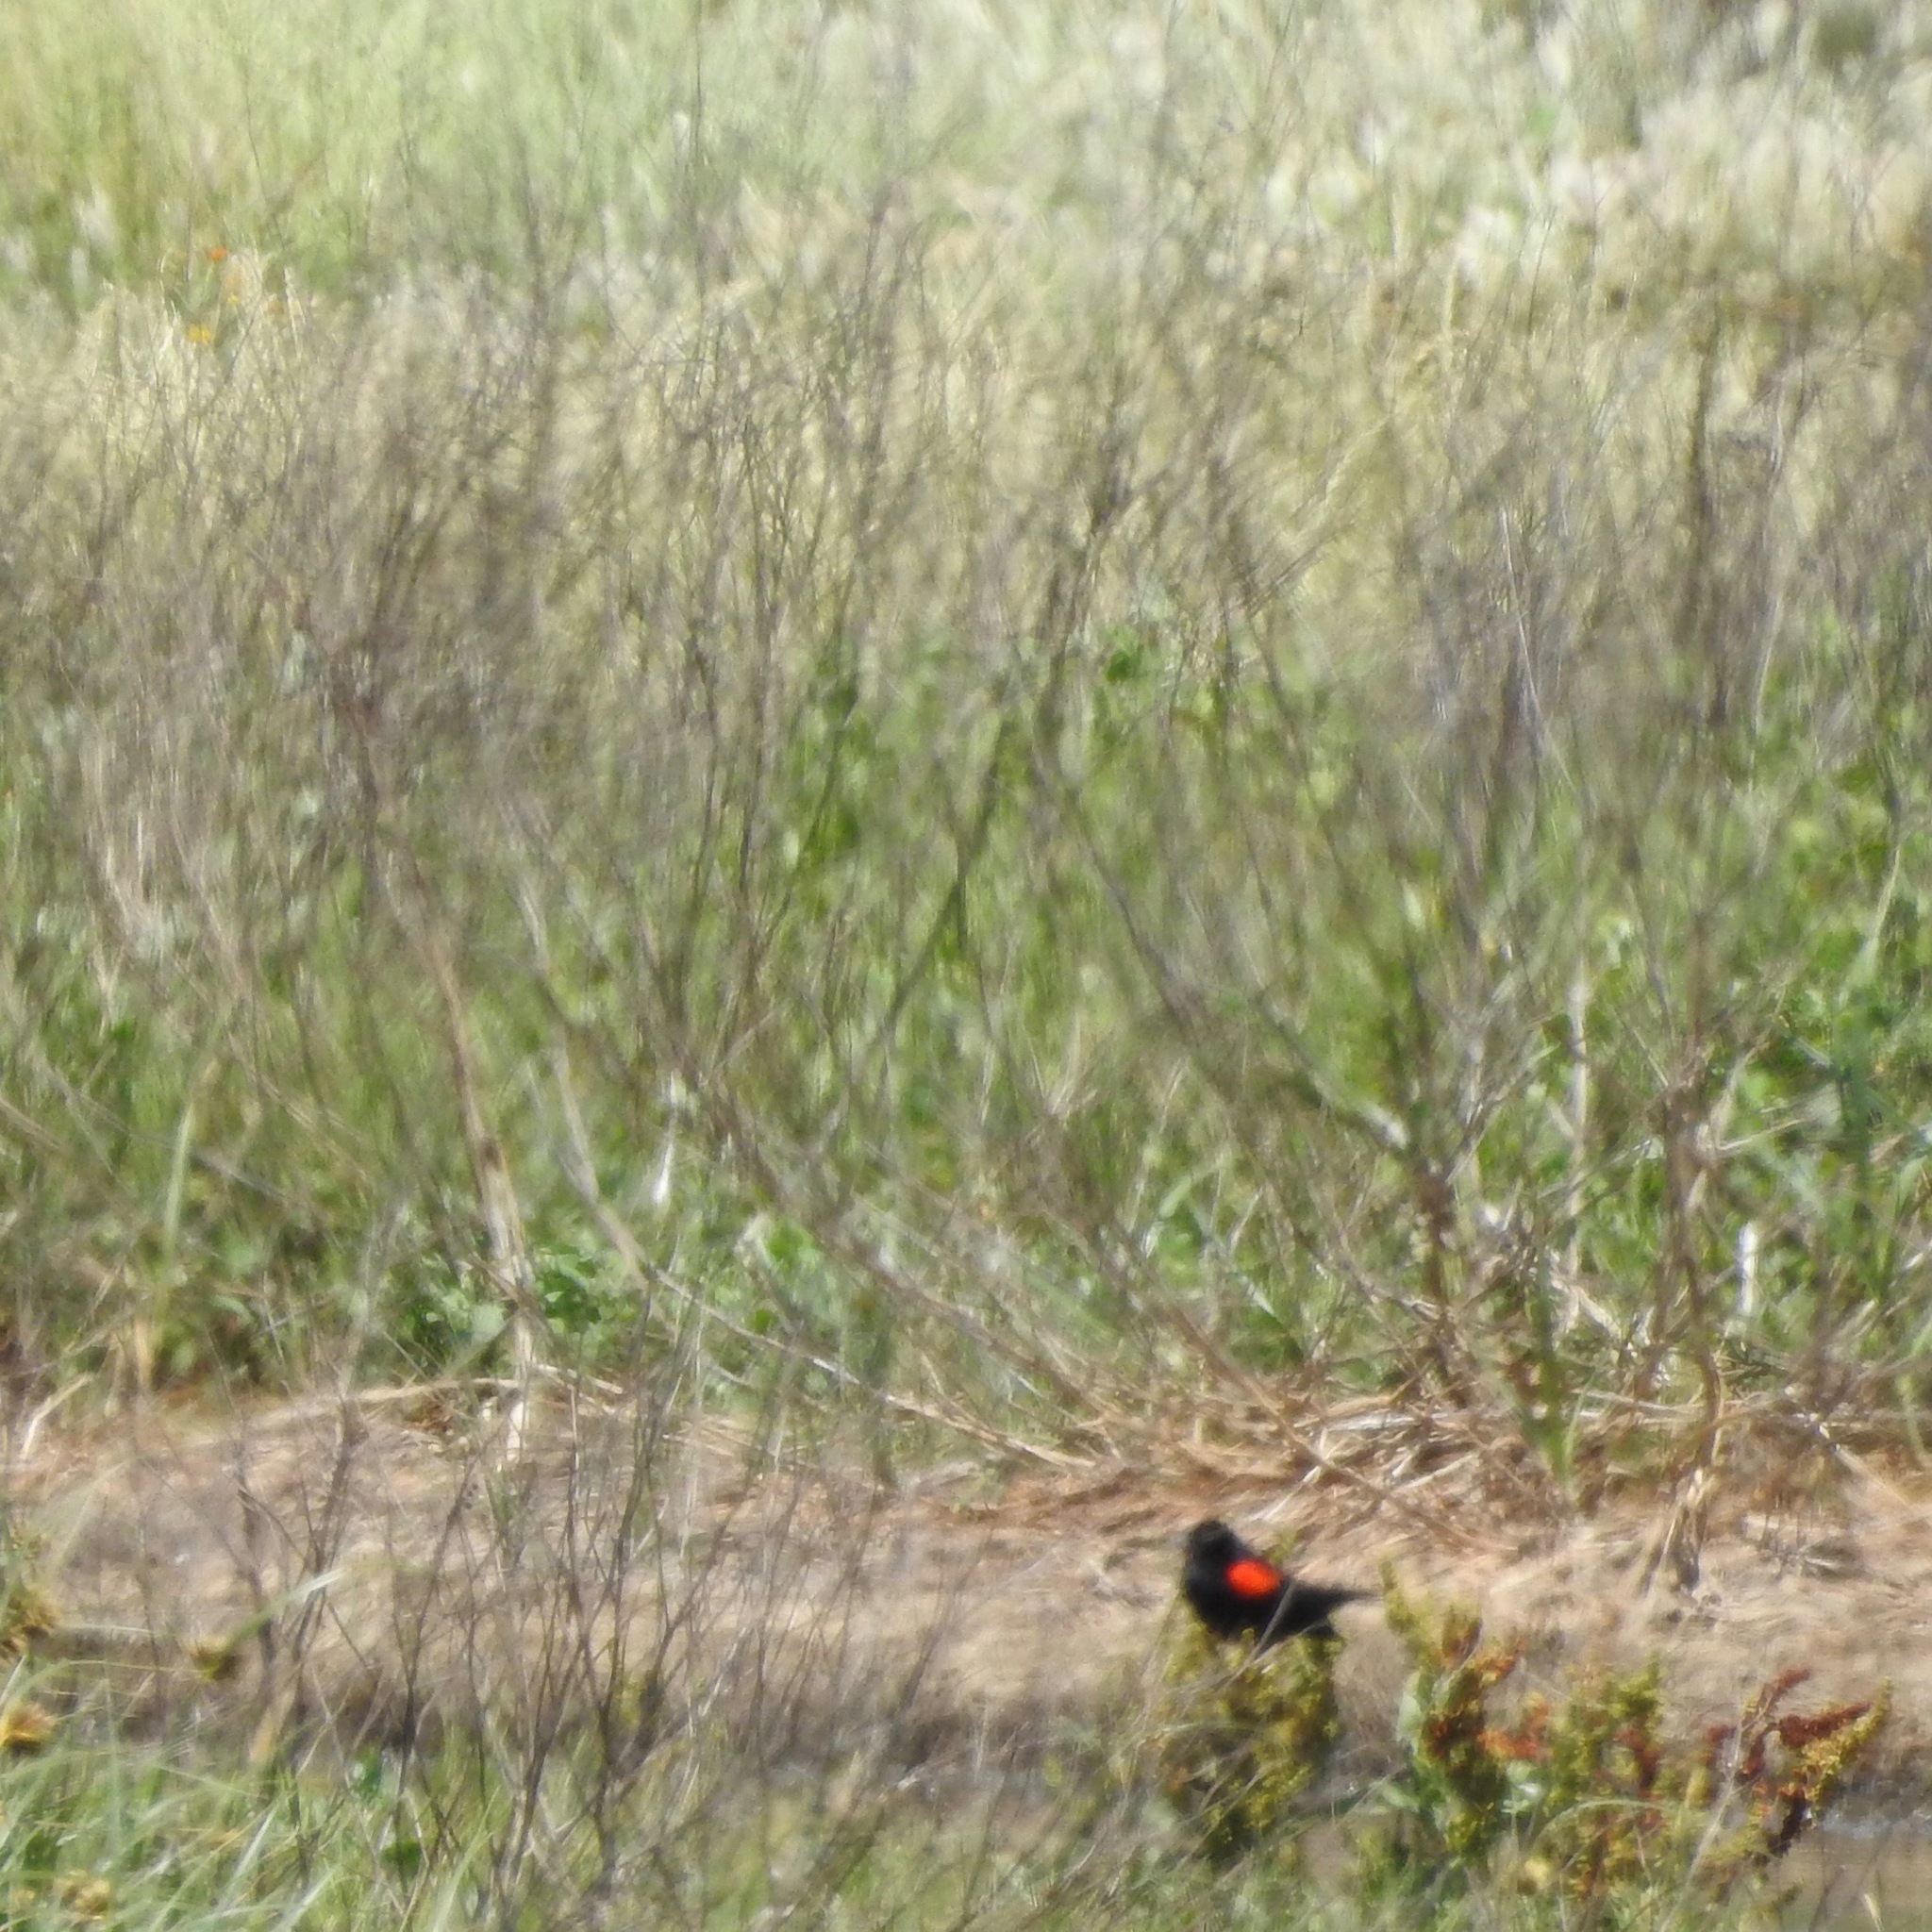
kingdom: Animalia
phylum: Chordata
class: Aves
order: Passeriformes
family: Icteridae
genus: Agelaius
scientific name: Agelaius phoeniceus
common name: Red-winged blackbird
